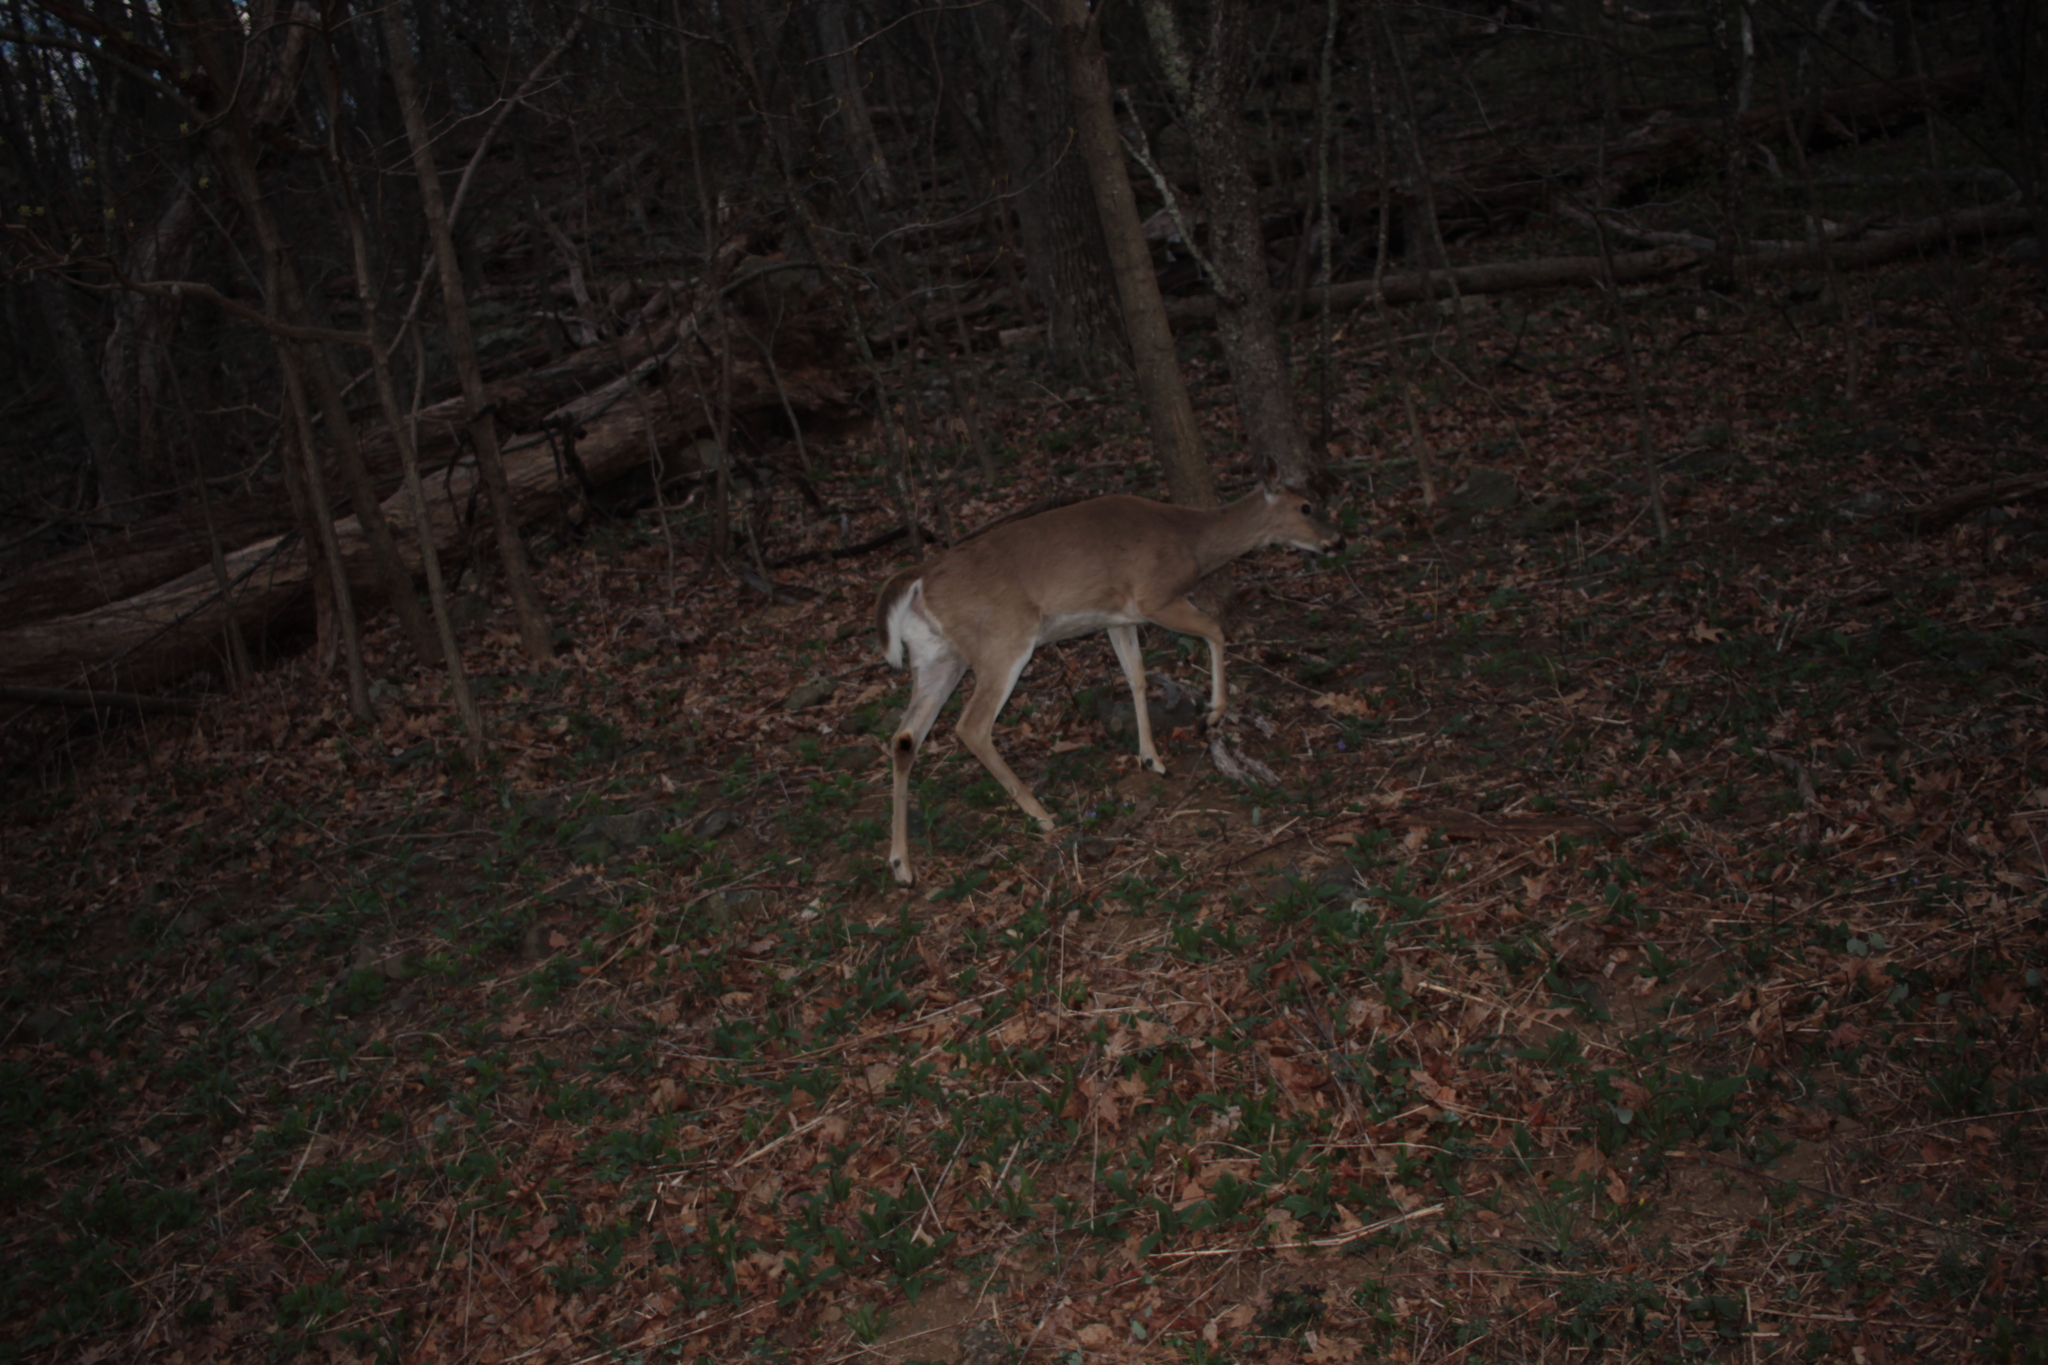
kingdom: Animalia
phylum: Chordata
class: Mammalia
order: Artiodactyla
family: Cervidae
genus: Odocoileus
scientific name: Odocoileus virginianus
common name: White-tailed deer
